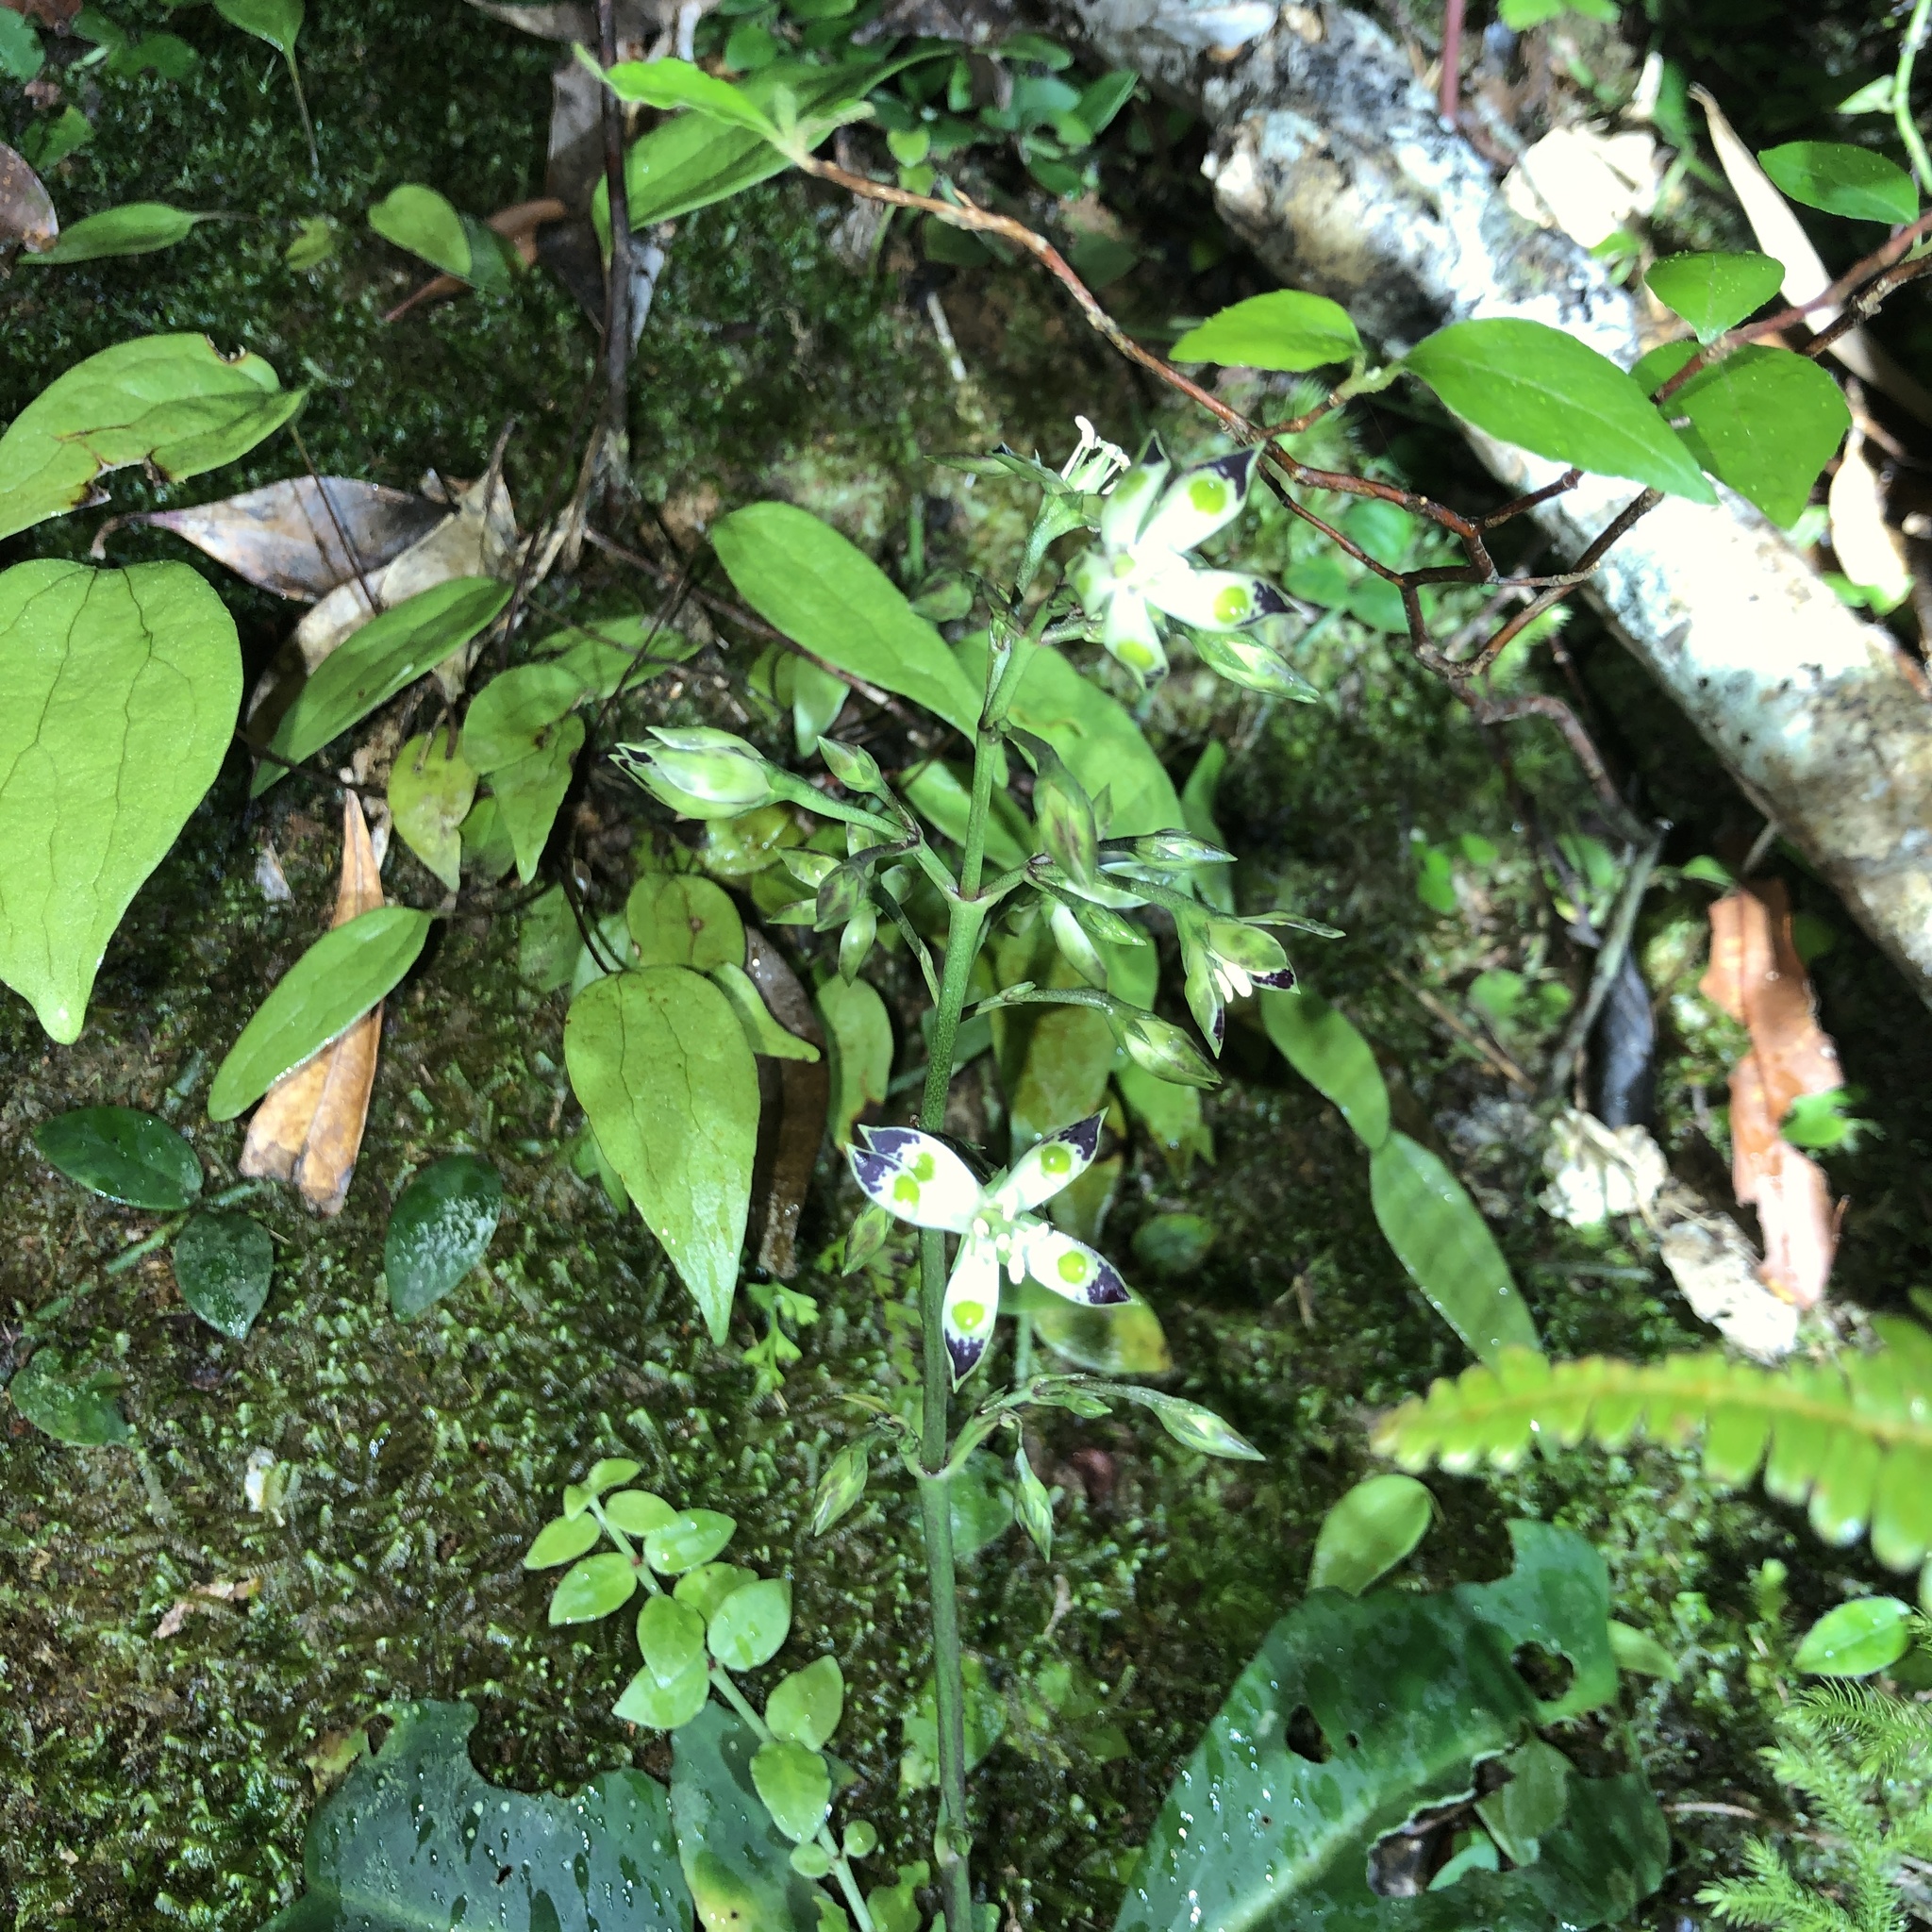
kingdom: Plantae
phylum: Tracheophyta
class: Magnoliopsida
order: Gentianales
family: Gentianaceae
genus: Swertia
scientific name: Swertia tashiroi
